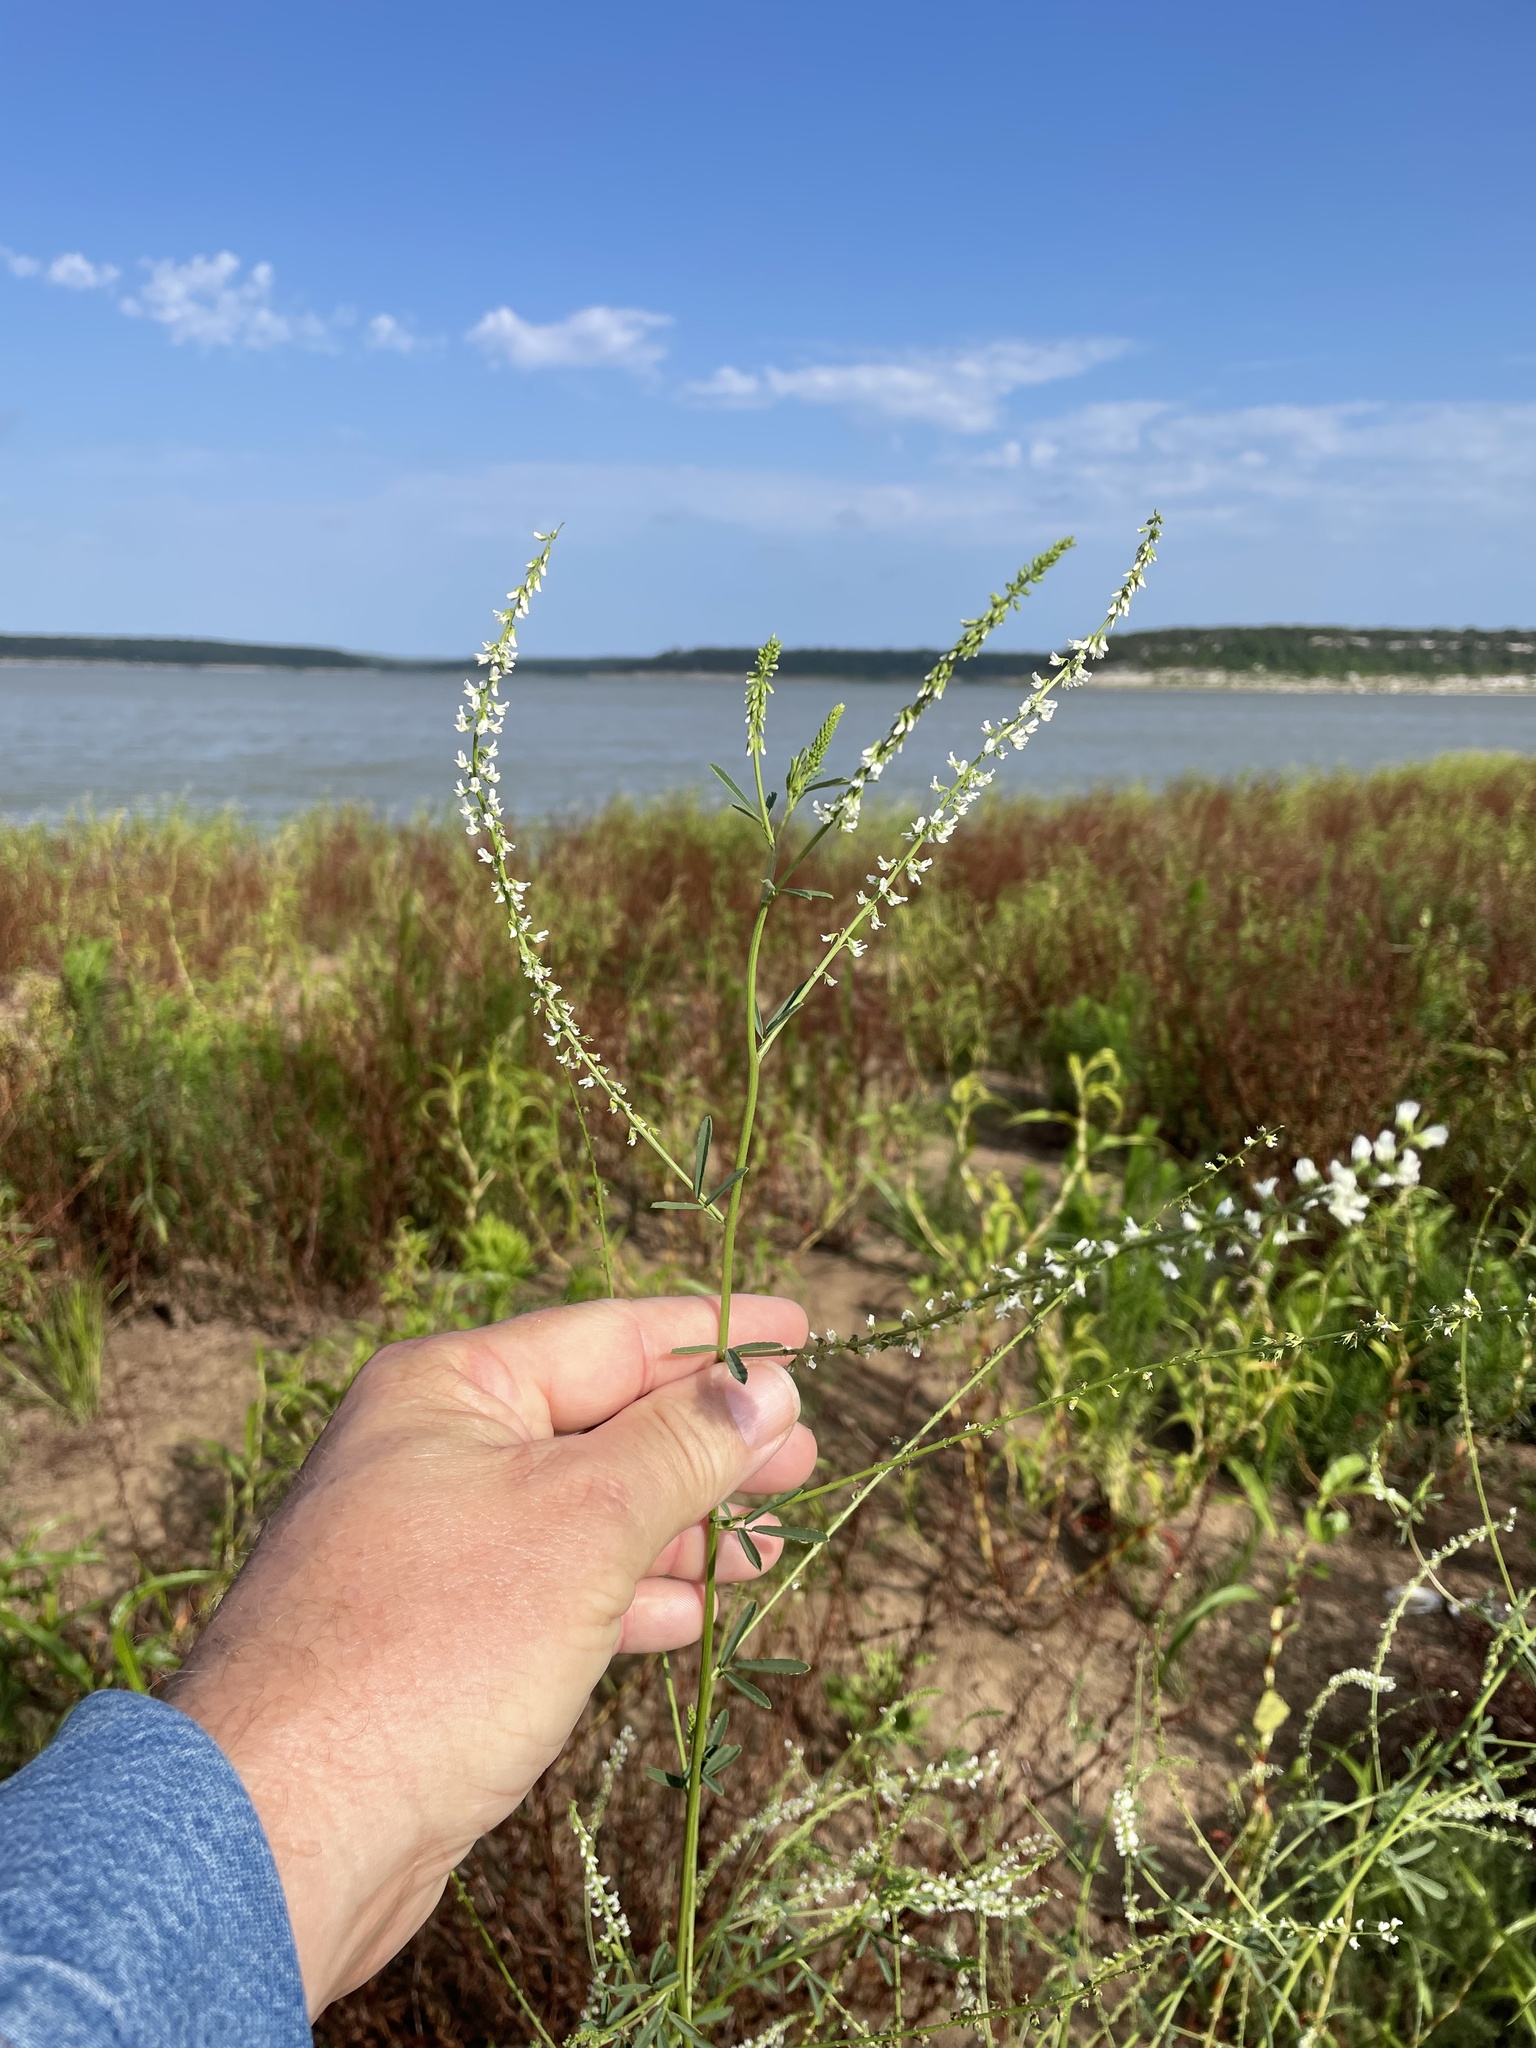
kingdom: Plantae
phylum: Tracheophyta
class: Magnoliopsida
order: Fabales
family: Fabaceae
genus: Melilotus
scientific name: Melilotus albus
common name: White melilot
